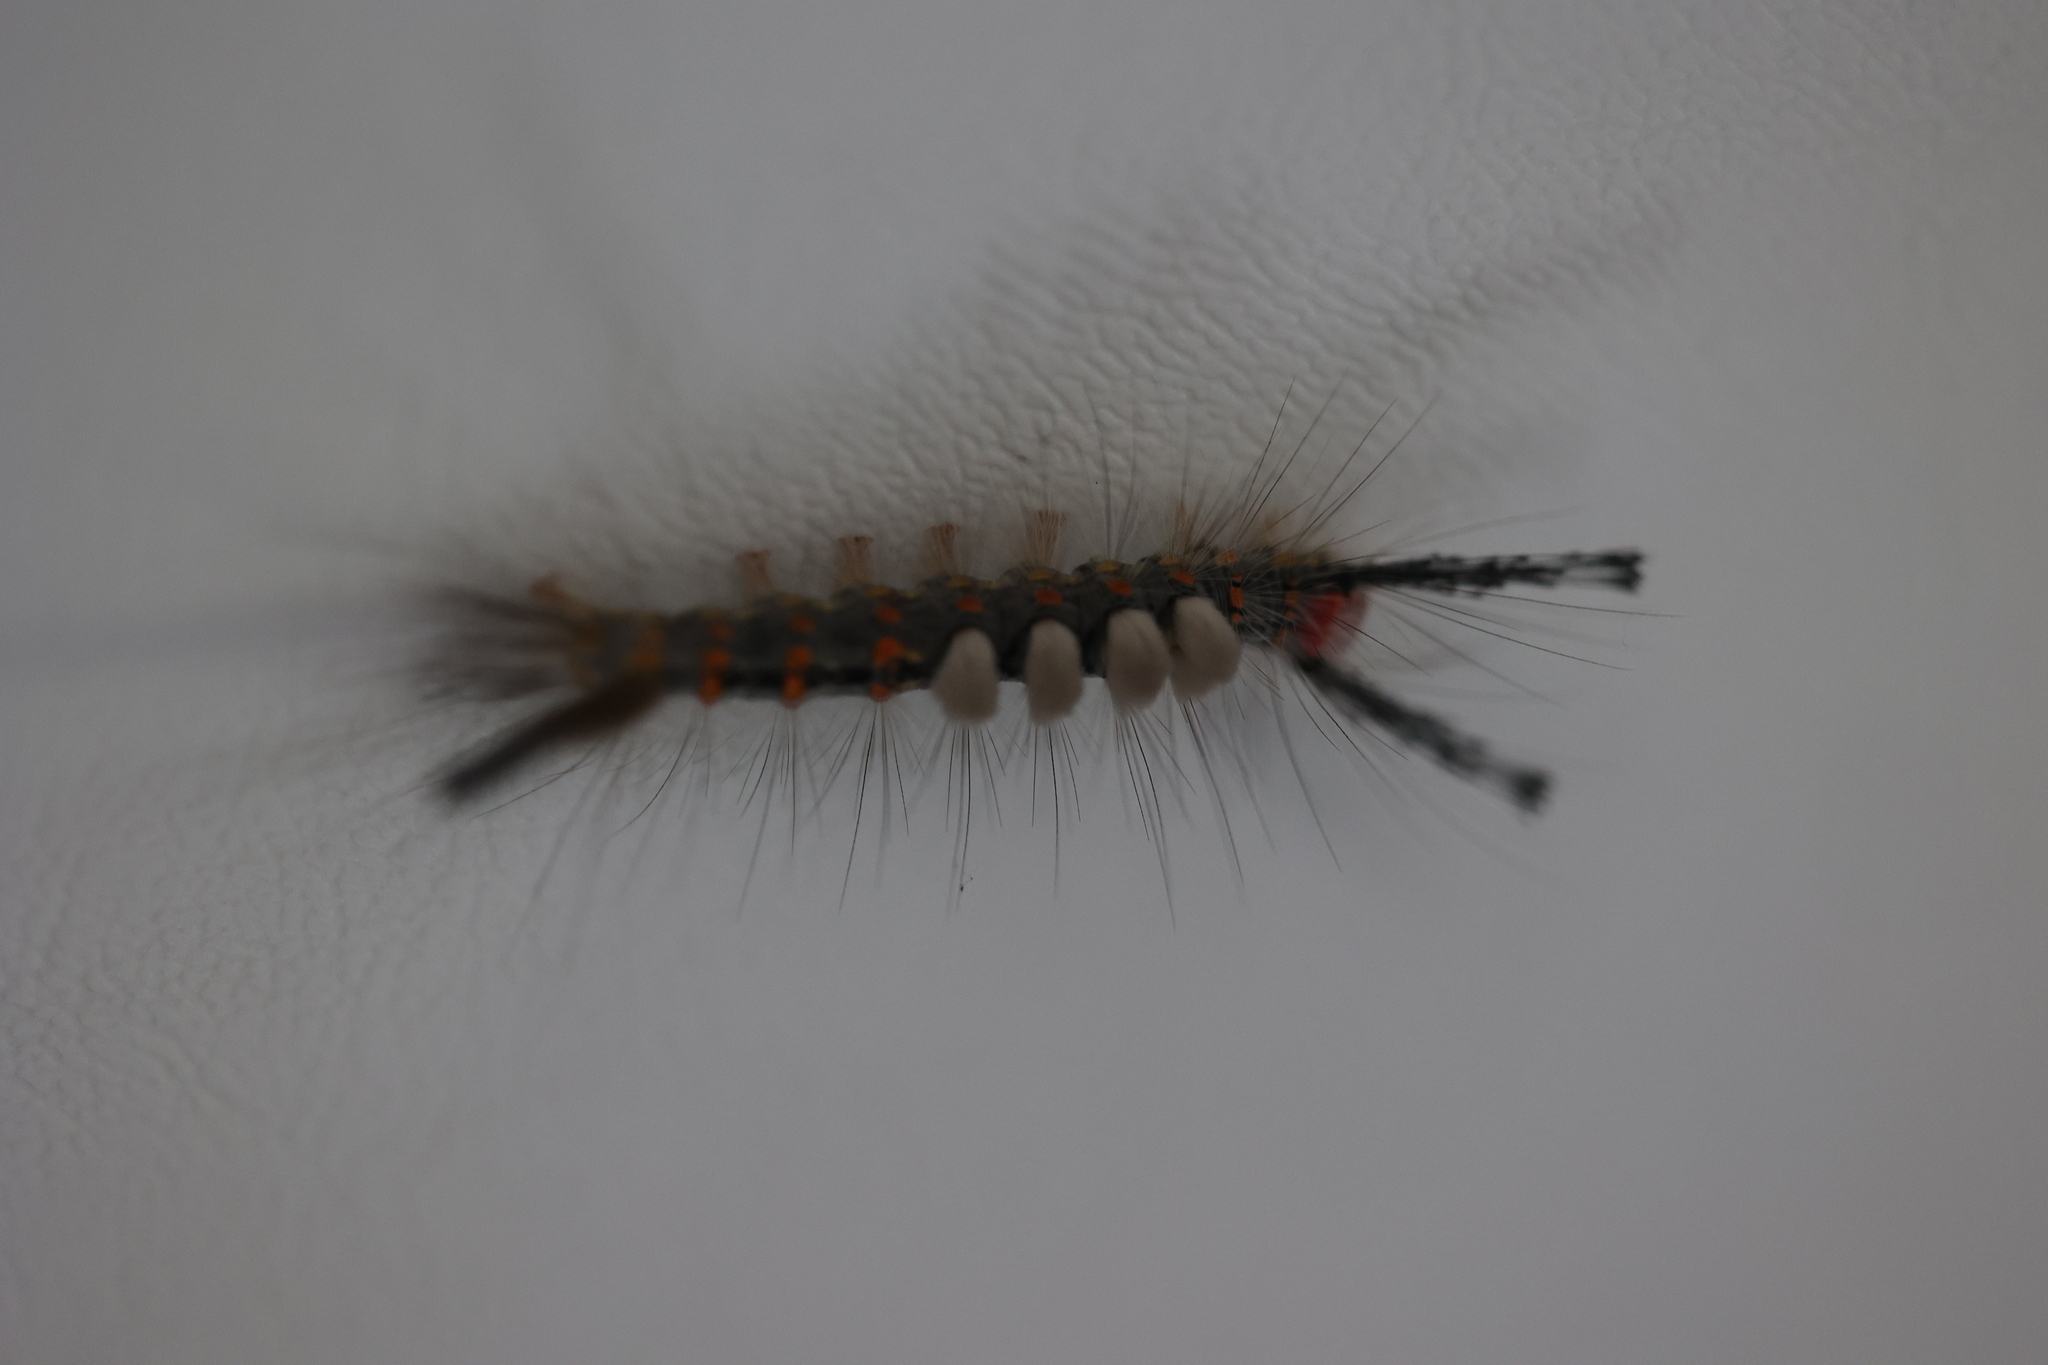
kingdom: Animalia
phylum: Arthropoda
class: Insecta
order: Lepidoptera
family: Erebidae
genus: Orgyia
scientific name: Orgyia detrita
